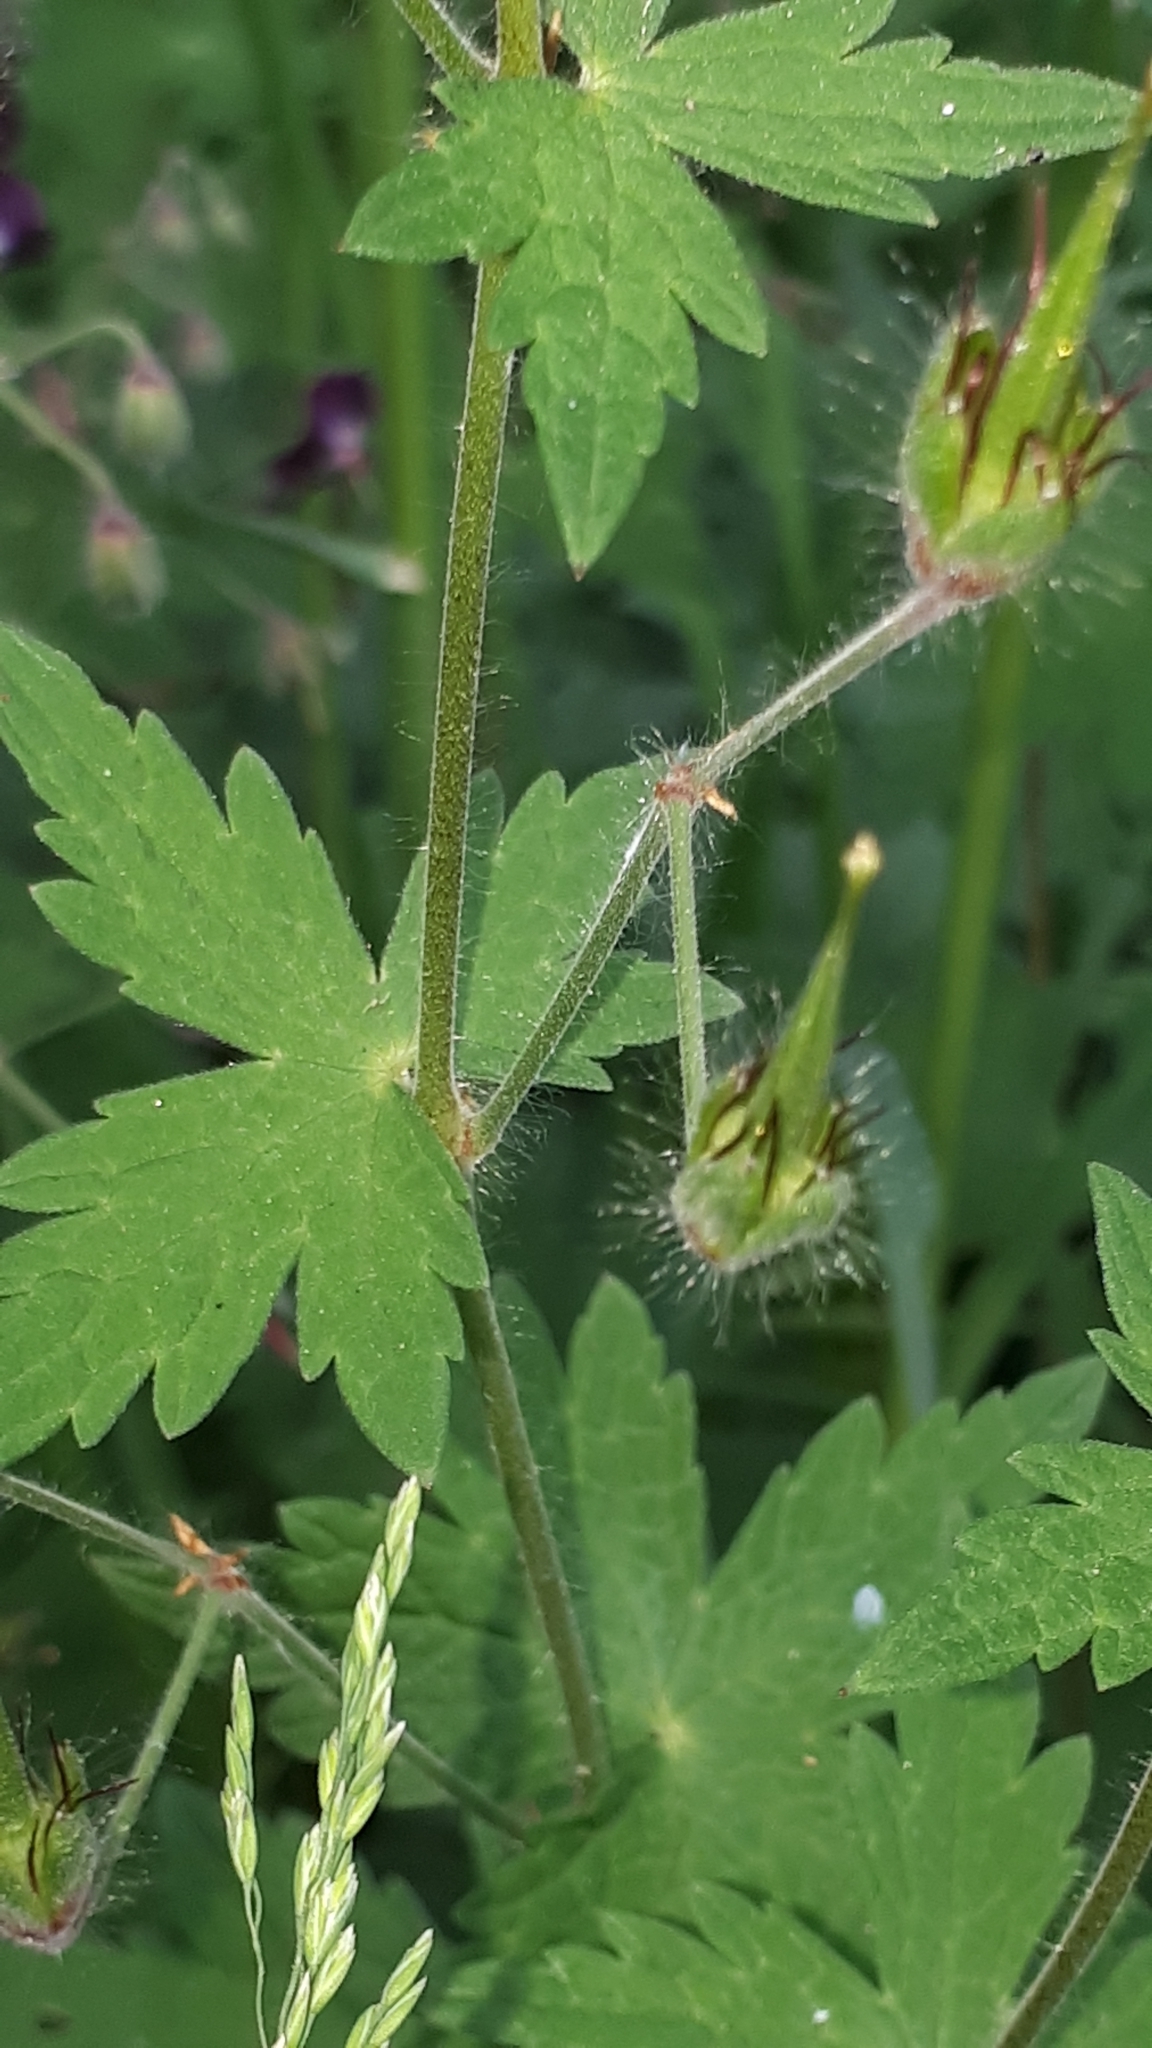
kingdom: Plantae
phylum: Tracheophyta
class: Magnoliopsida
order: Geraniales
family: Geraniaceae
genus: Geranium
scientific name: Geranium phaeum
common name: Dusky crane's-bill
